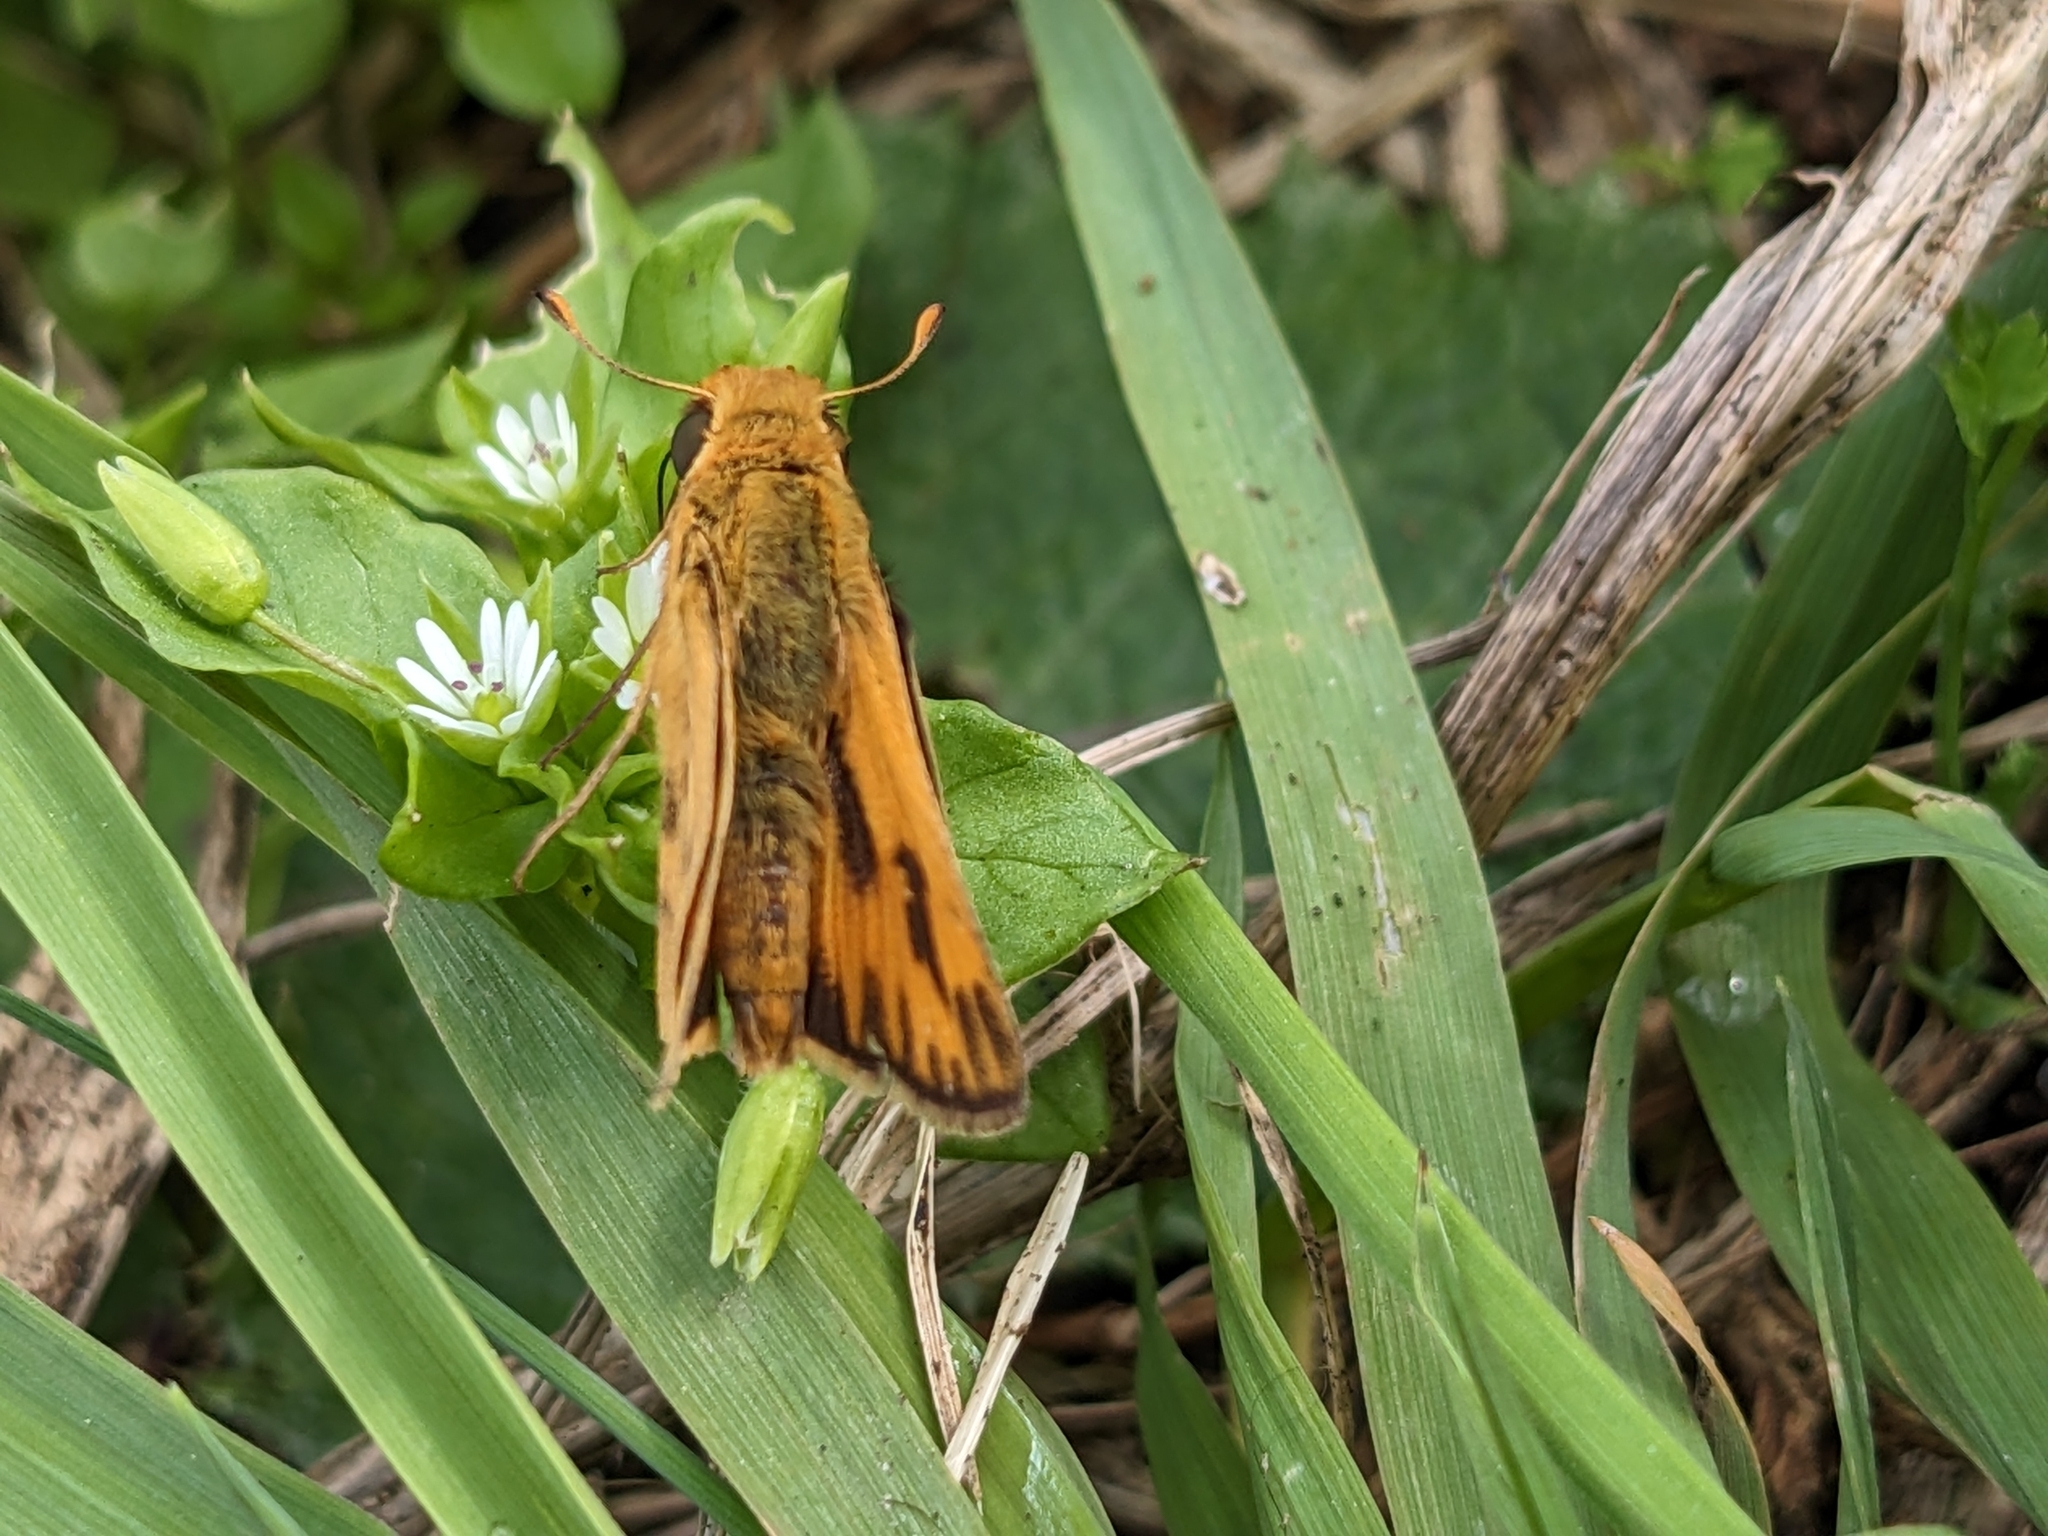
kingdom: Animalia
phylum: Arthropoda
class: Insecta
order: Lepidoptera
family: Hesperiidae
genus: Hylephila
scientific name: Hylephila phyleus
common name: Fiery skipper
